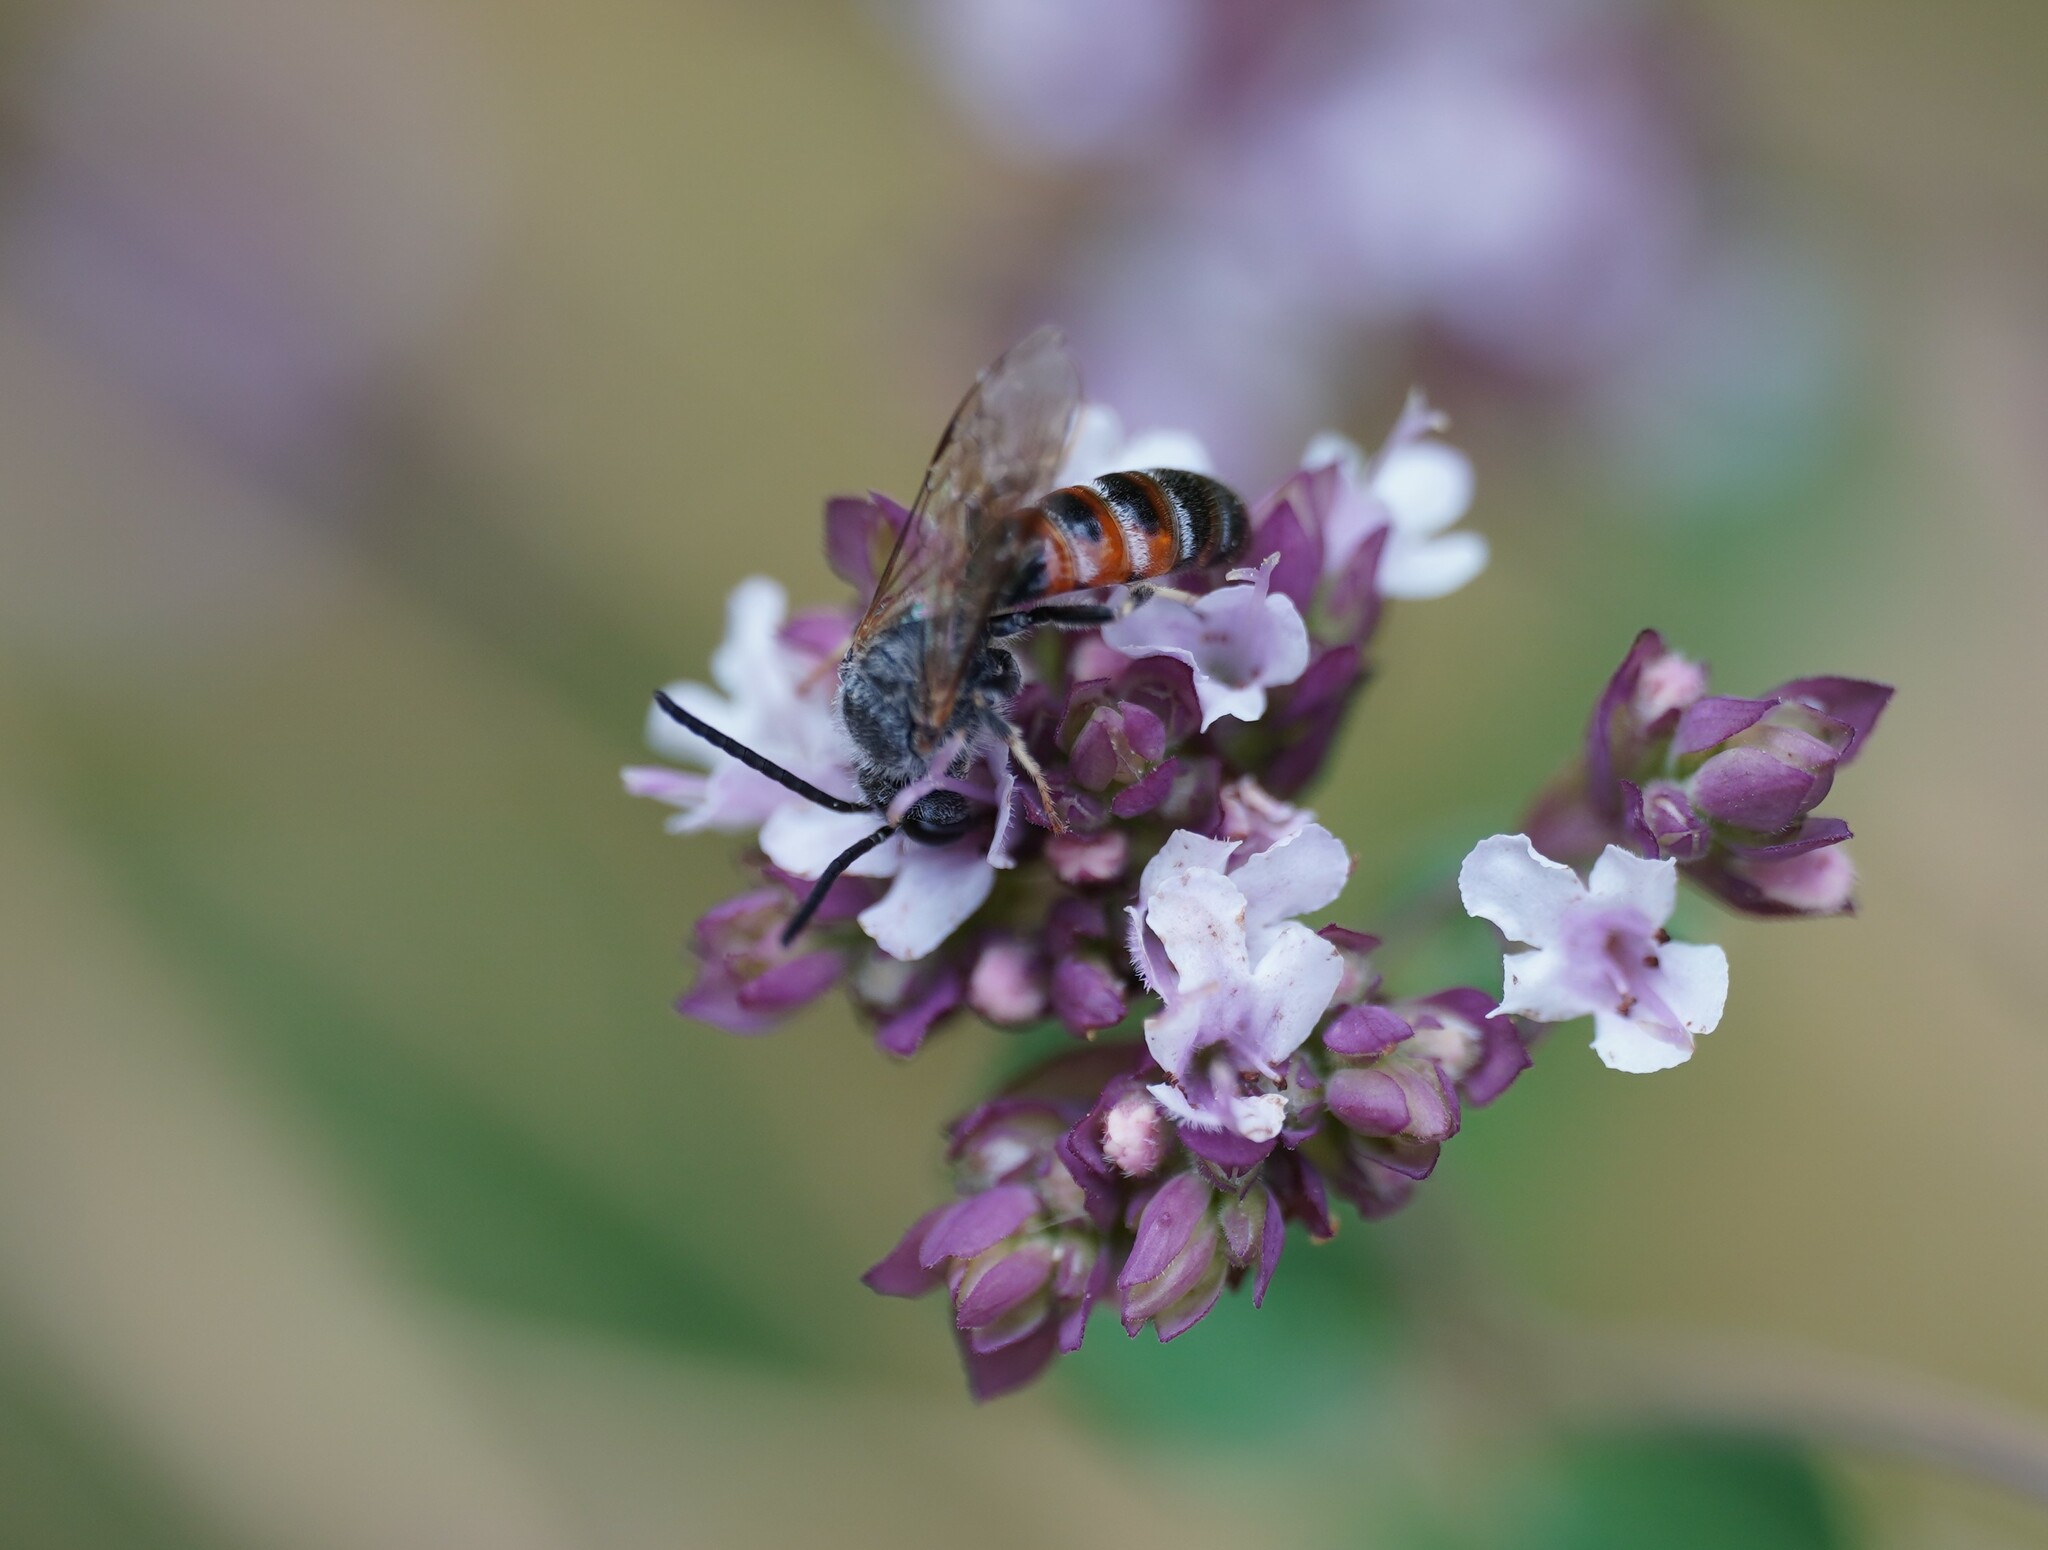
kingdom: Animalia
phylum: Arthropoda
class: Insecta
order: Hymenoptera
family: Halictidae
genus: Sphecodogastra
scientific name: Sphecodogastra
